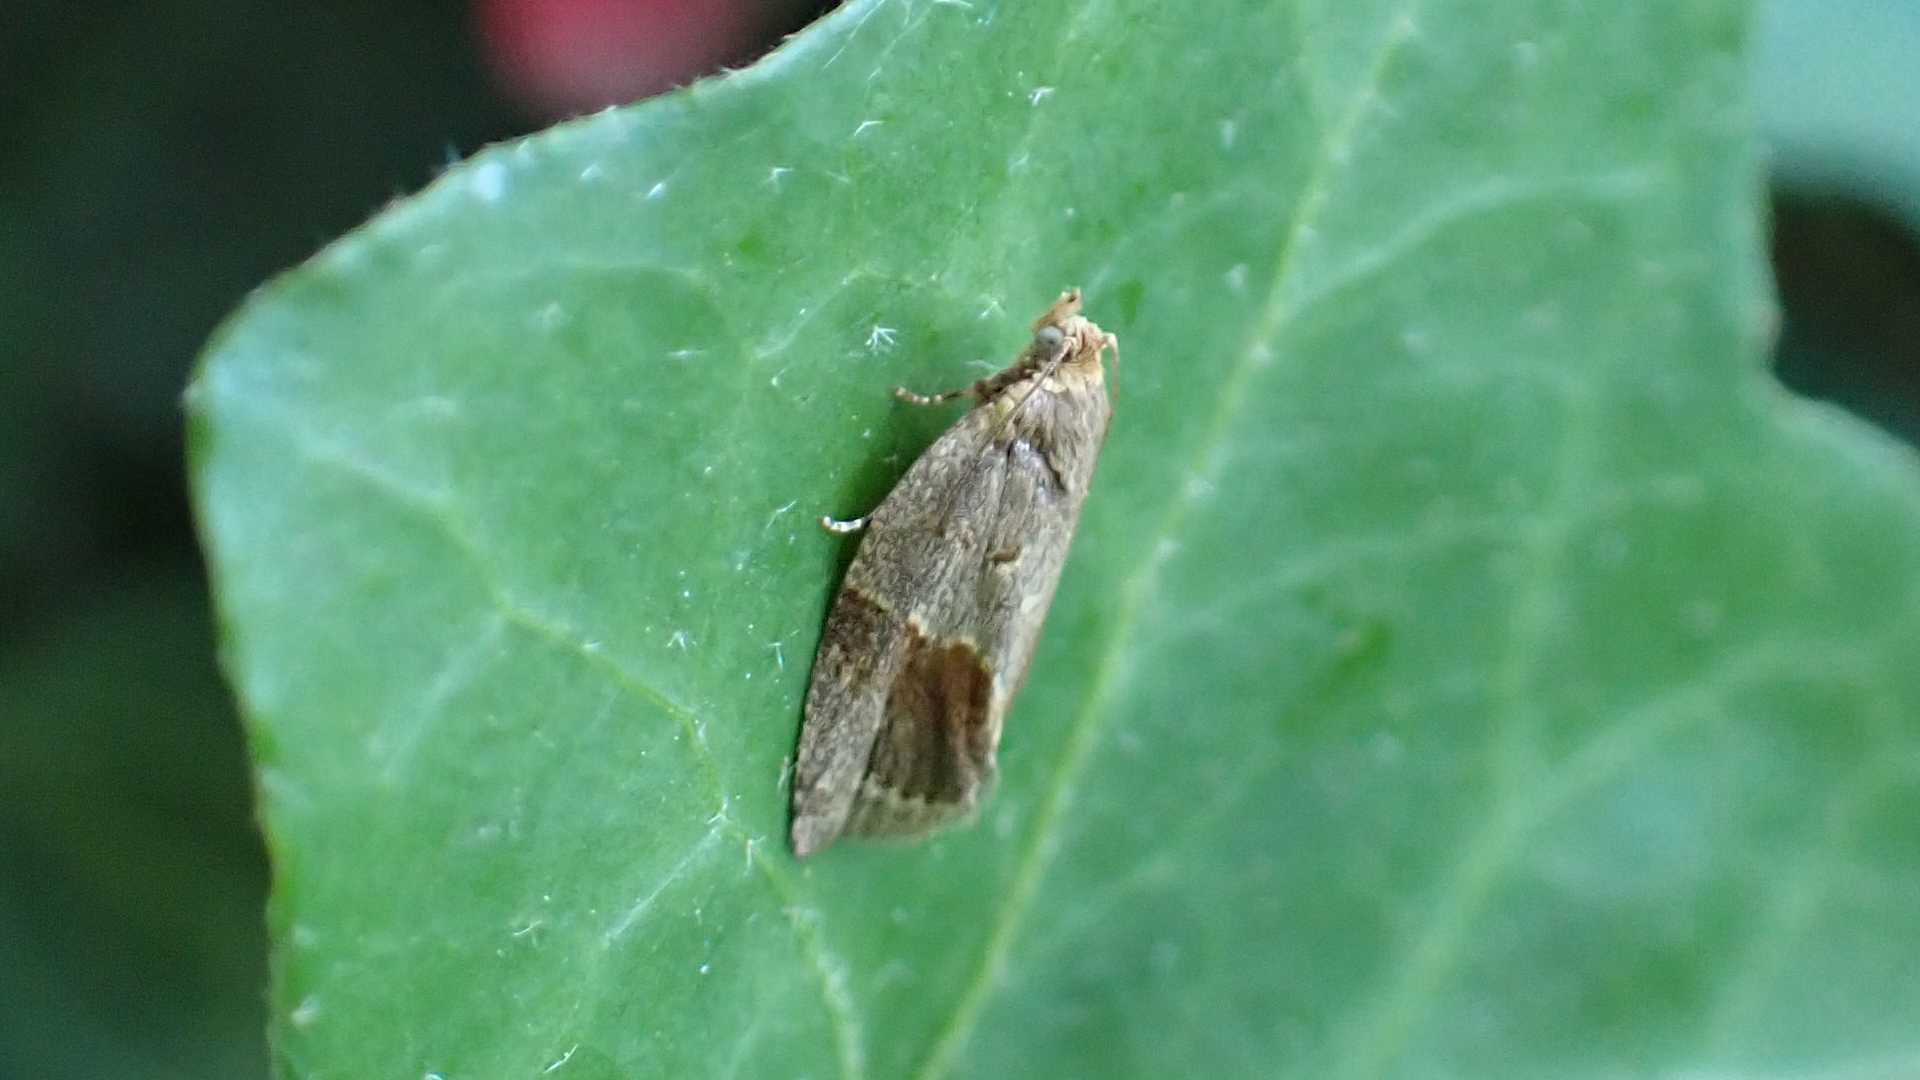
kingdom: Animalia
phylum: Arthropoda
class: Insecta
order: Lepidoptera
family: Tortricidae
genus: Clepsis
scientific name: Clepsis dumicolana
